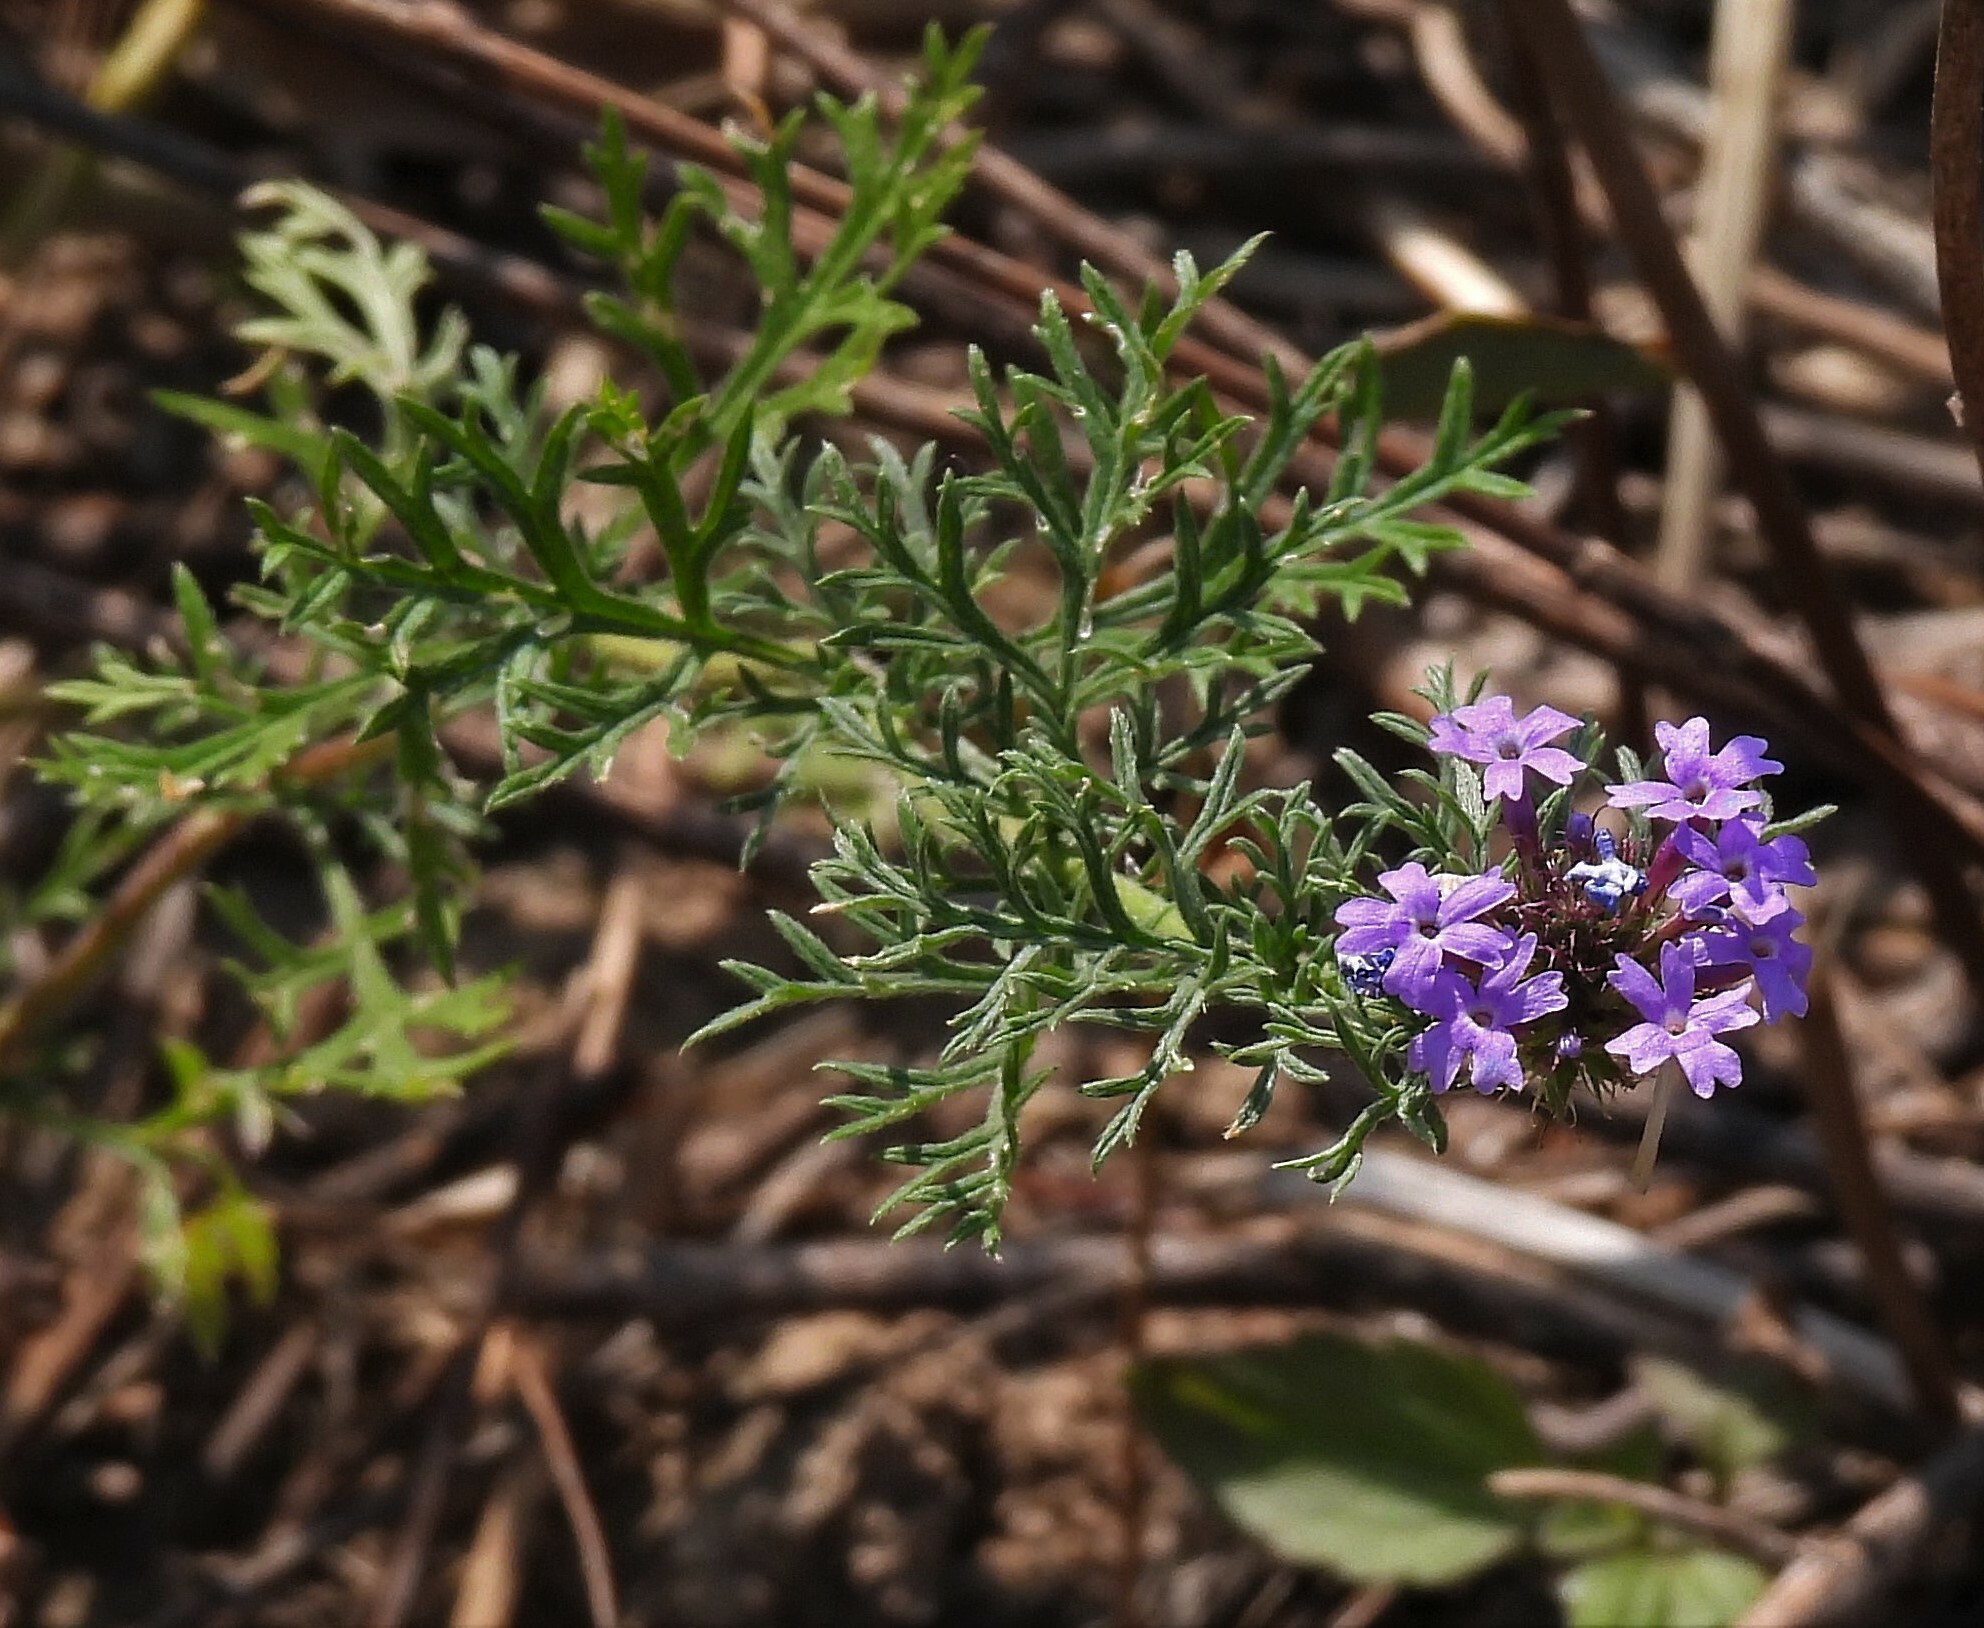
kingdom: Plantae
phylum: Tracheophyta
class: Magnoliopsida
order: Lamiales
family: Verbenaceae
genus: Verbena
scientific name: Verbena aristigera
